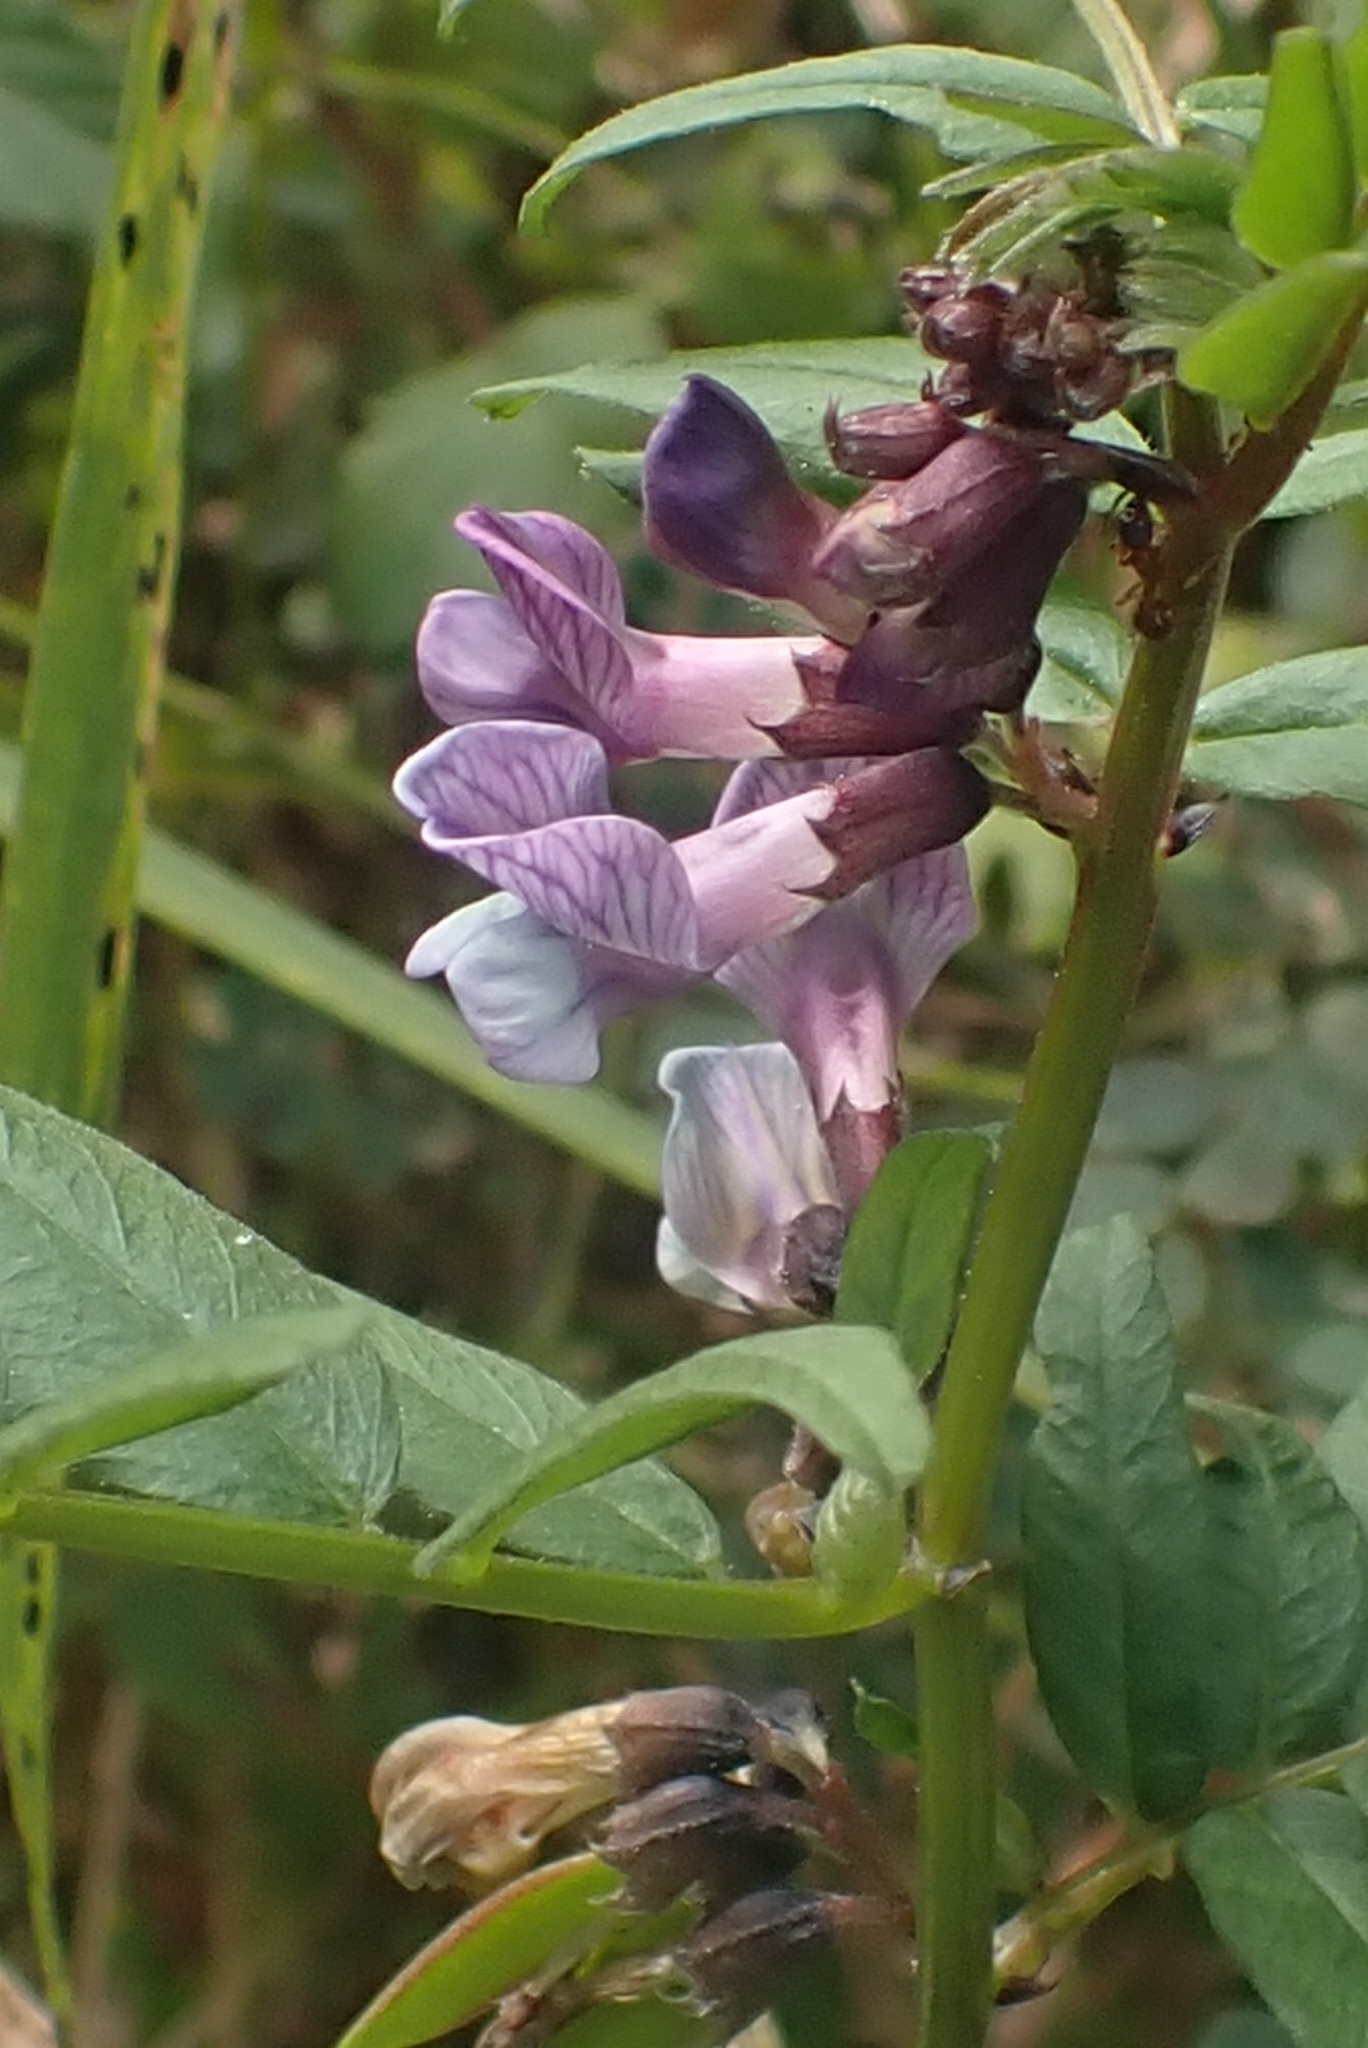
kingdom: Plantae
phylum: Tracheophyta
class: Magnoliopsida
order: Fabales
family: Fabaceae
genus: Vicia
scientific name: Vicia sepium
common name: Bush vetch
